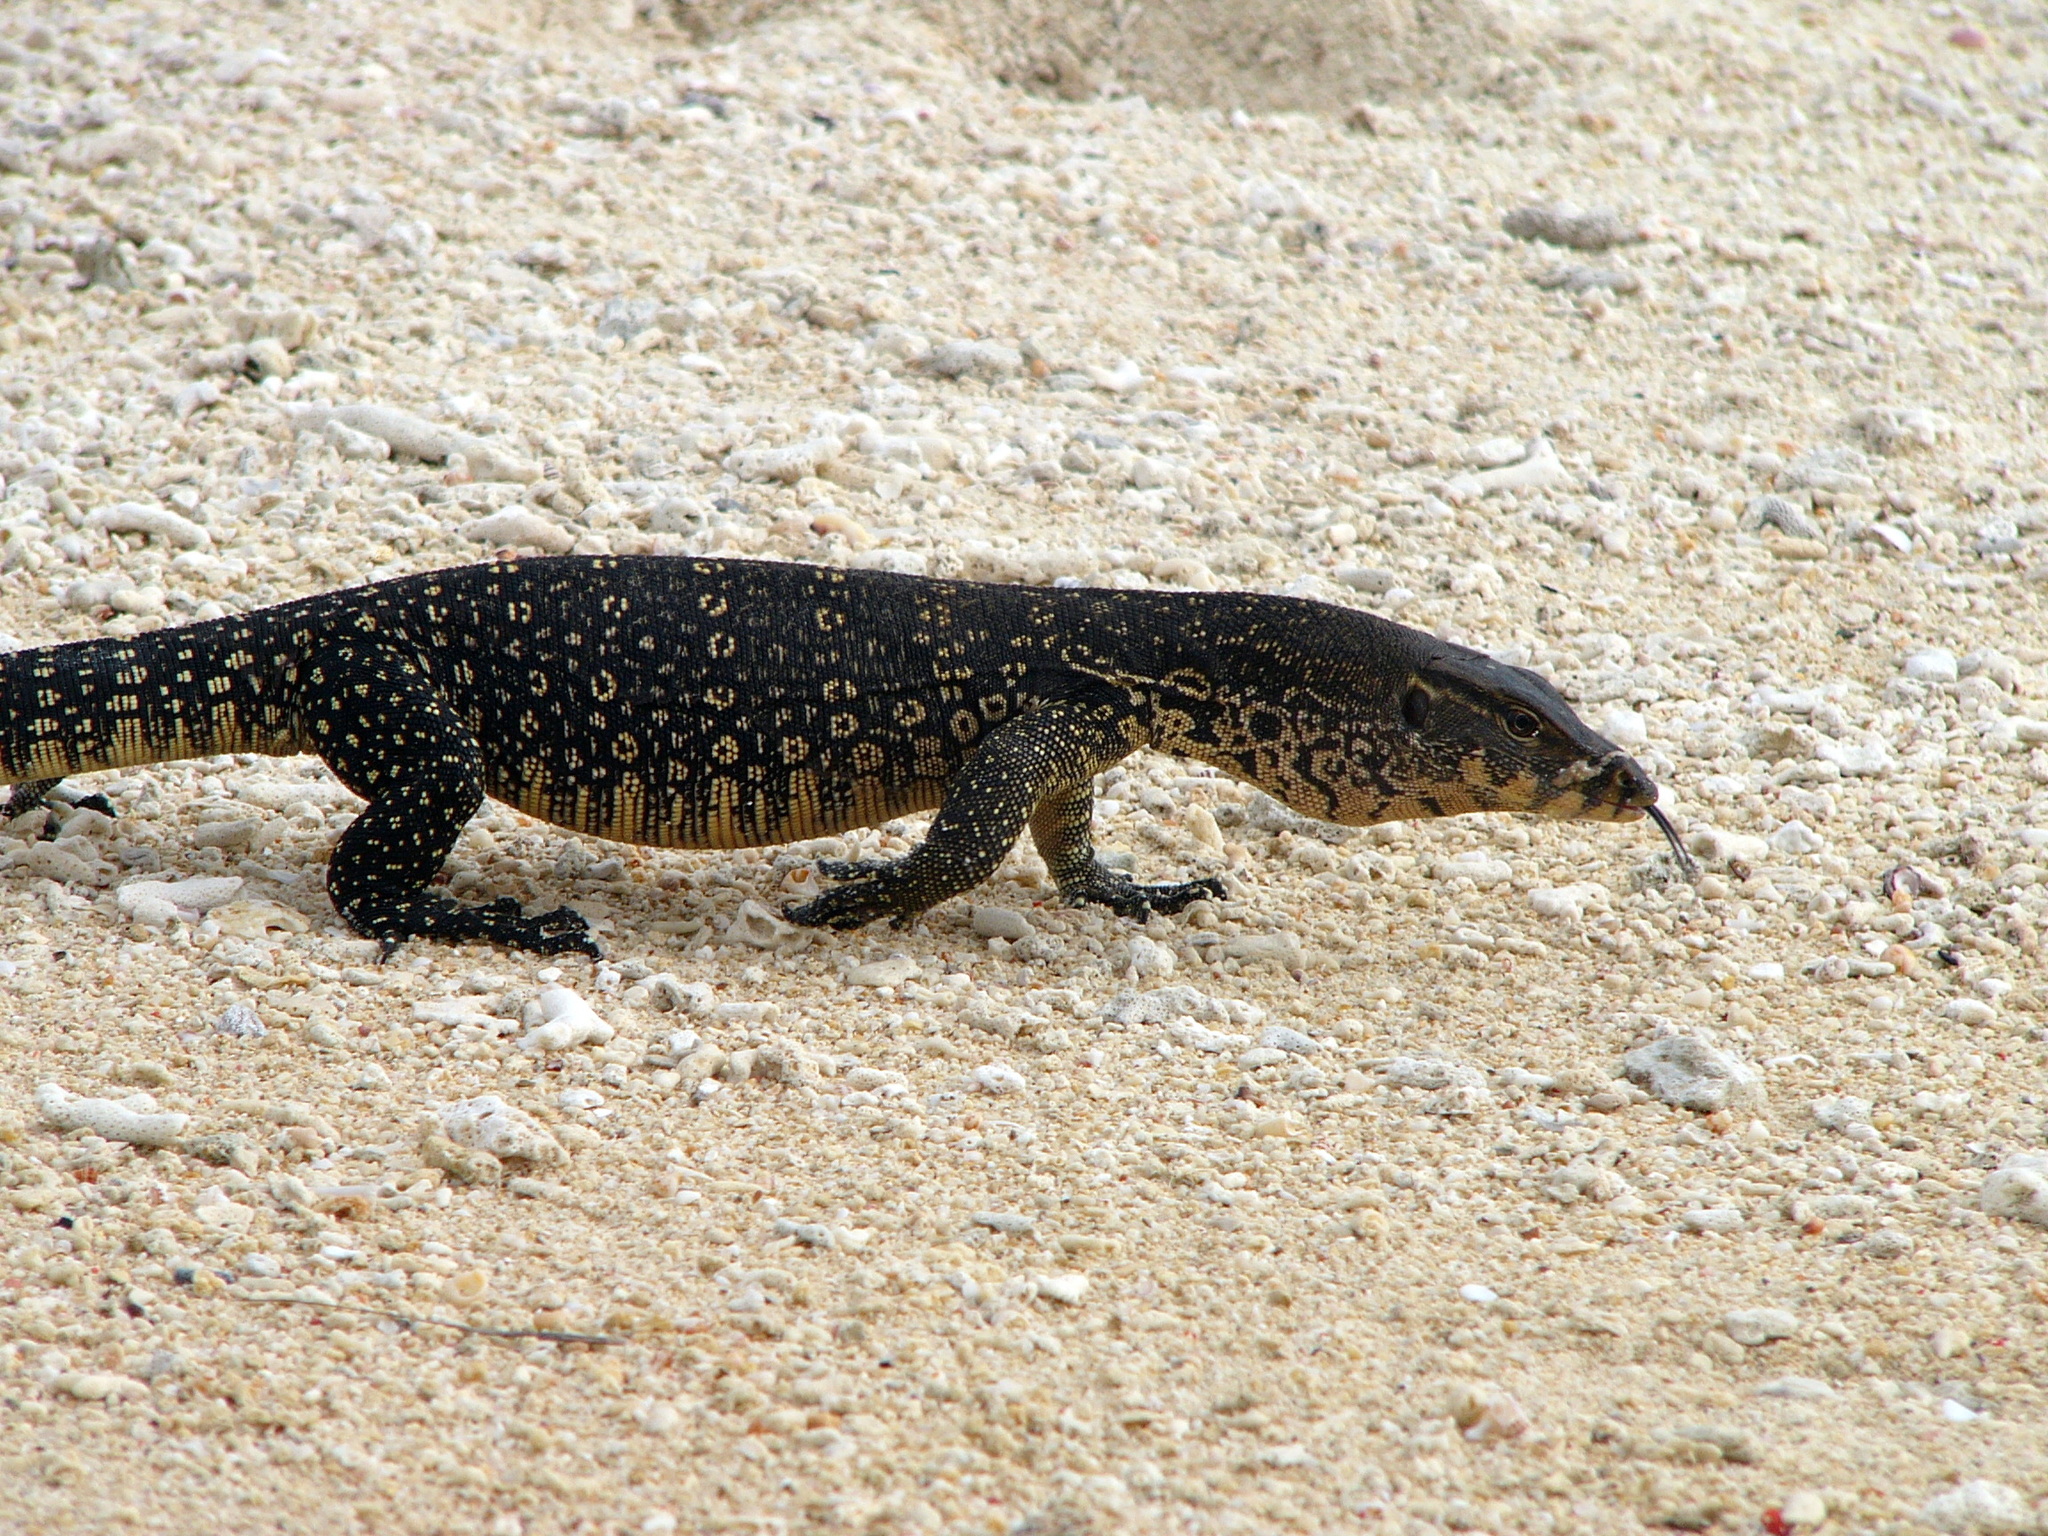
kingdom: Animalia
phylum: Chordata
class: Squamata
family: Varanidae
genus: Varanus
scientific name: Varanus salvator
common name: Common water monitor
